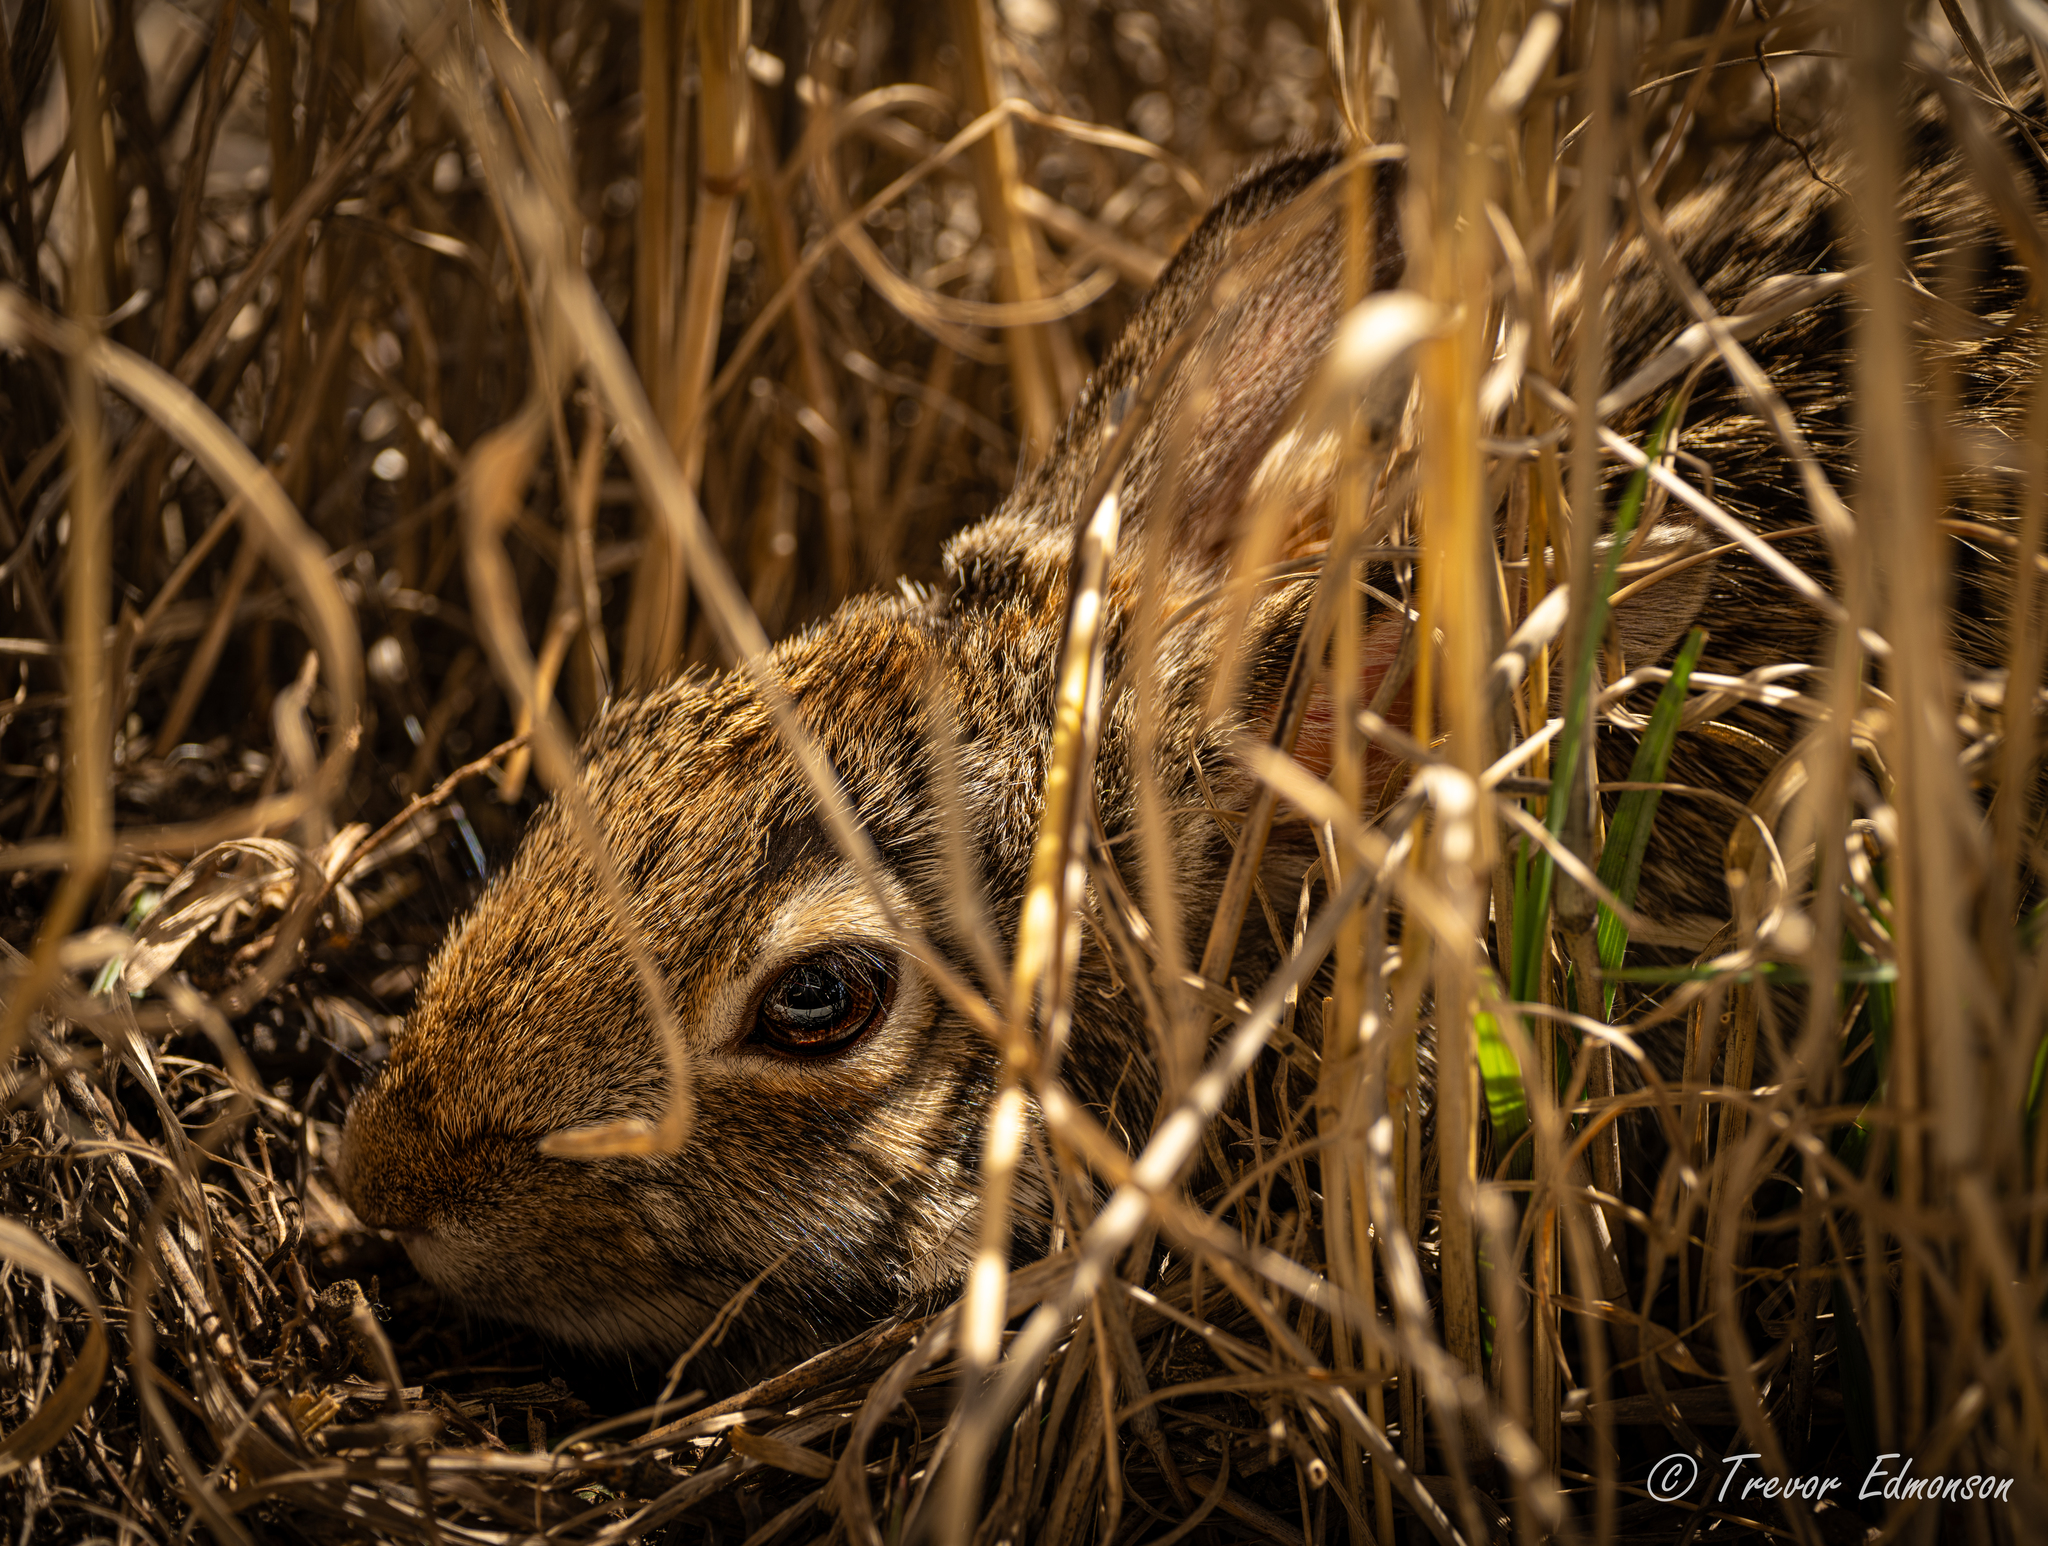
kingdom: Animalia
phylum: Chordata
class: Mammalia
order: Lagomorpha
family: Leporidae
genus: Sylvilagus
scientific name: Sylvilagus floridanus
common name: Eastern cottontail
